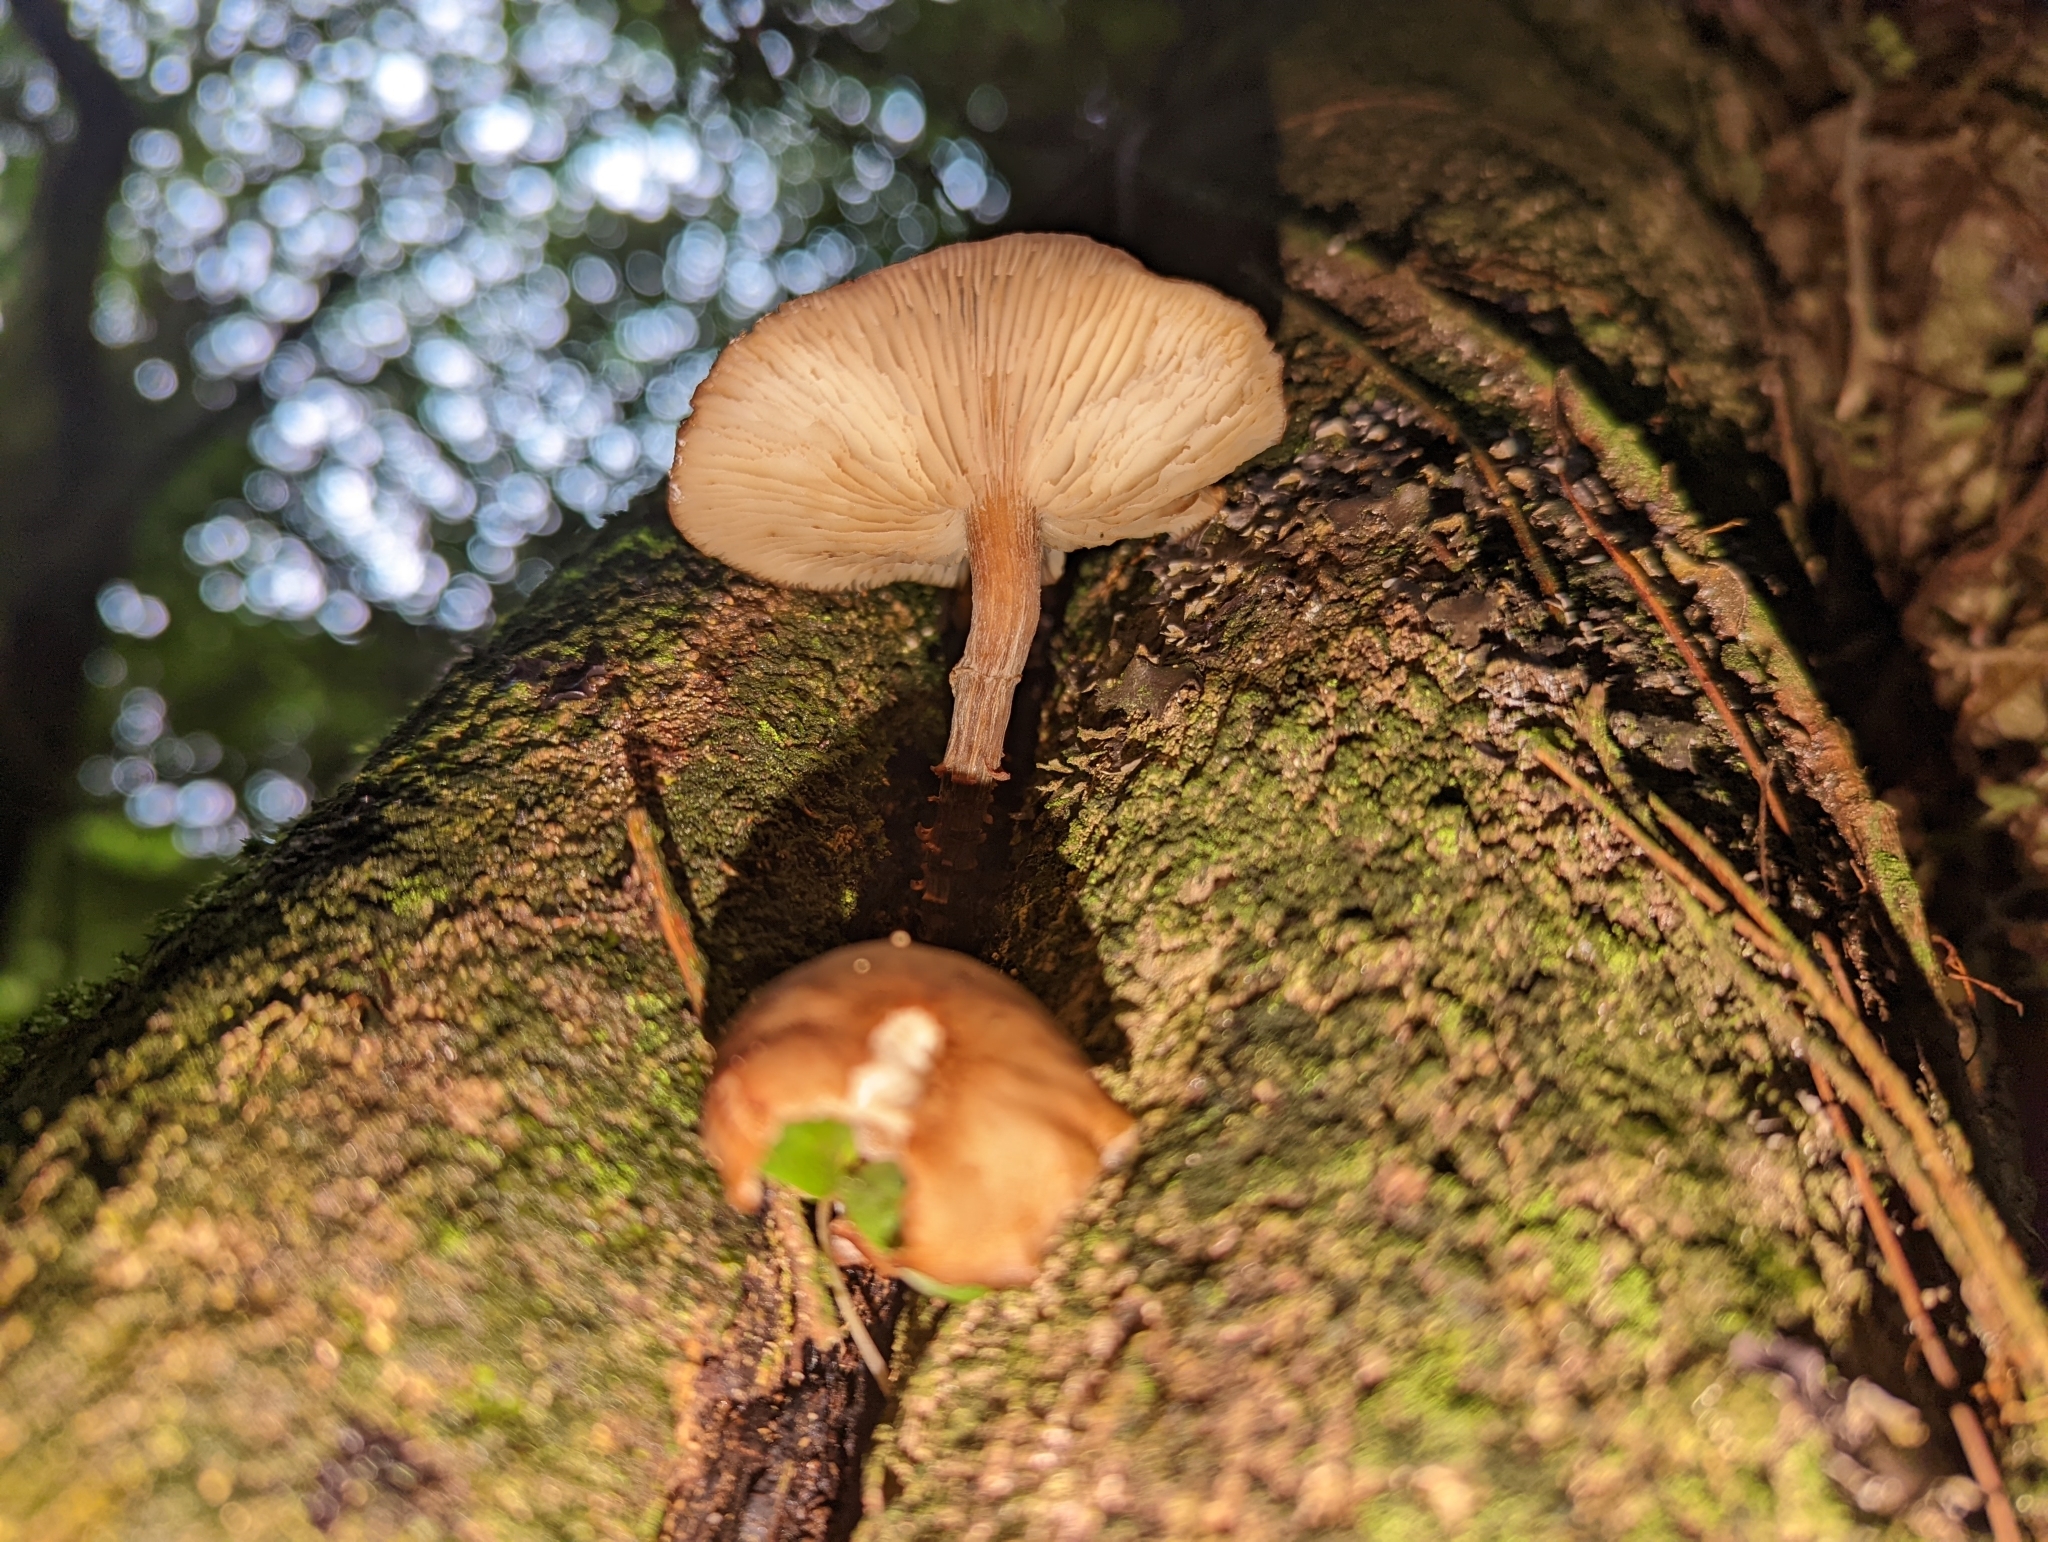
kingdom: Fungi
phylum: Basidiomycota
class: Agaricomycetes
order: Agaricales
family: Physalacriaceae
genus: Armillaria
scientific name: Armillaria novae-zelandiae
